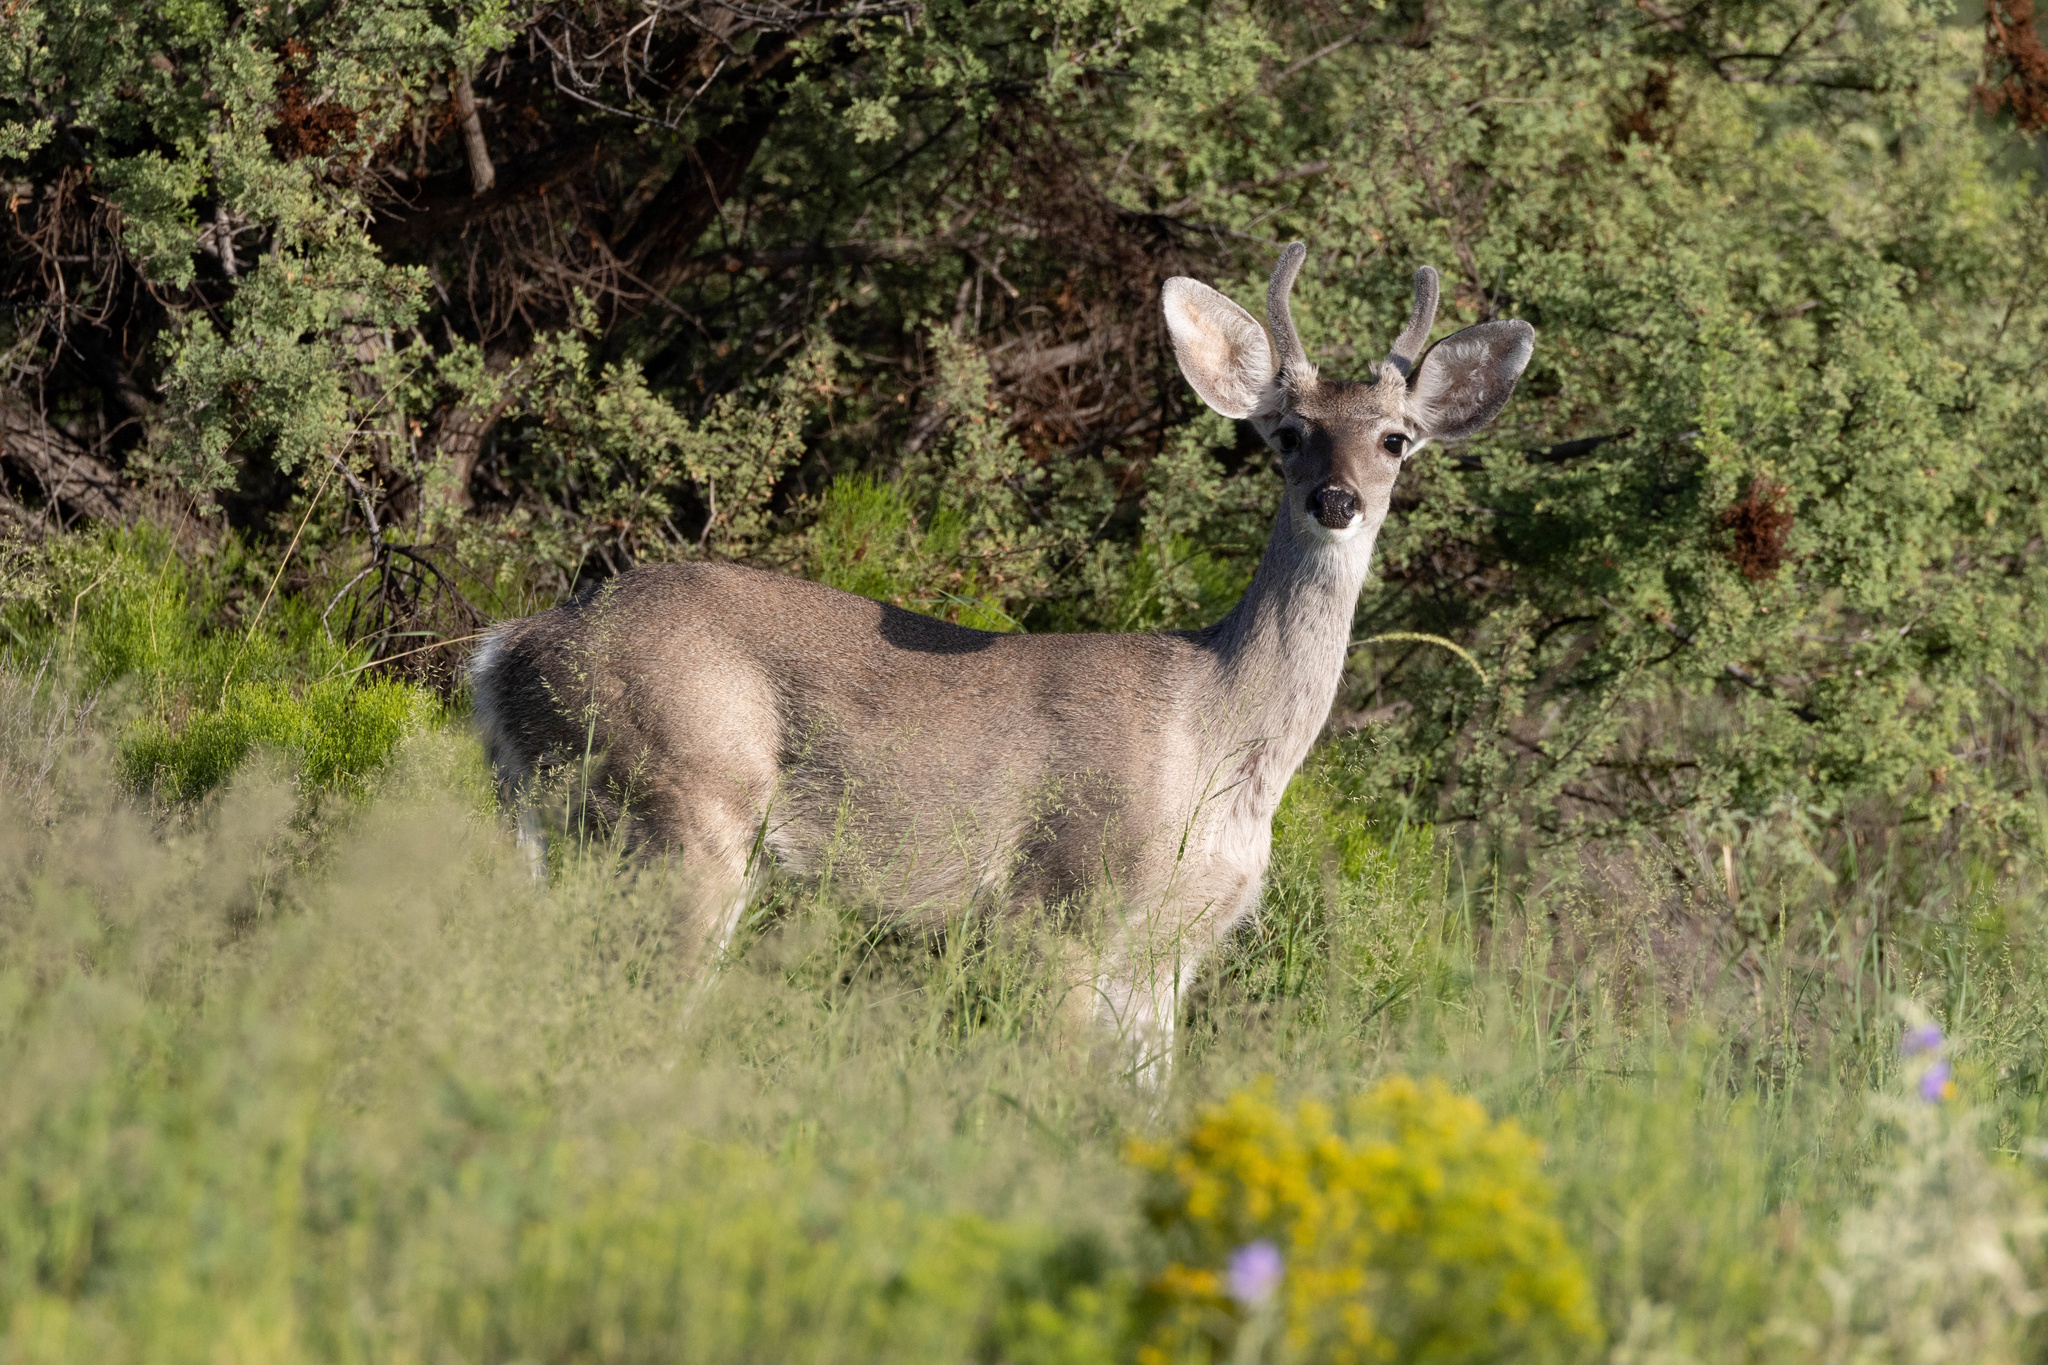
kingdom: Animalia
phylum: Chordata
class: Mammalia
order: Artiodactyla
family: Cervidae
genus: Odocoileus
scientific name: Odocoileus virginianus
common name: White-tailed deer
